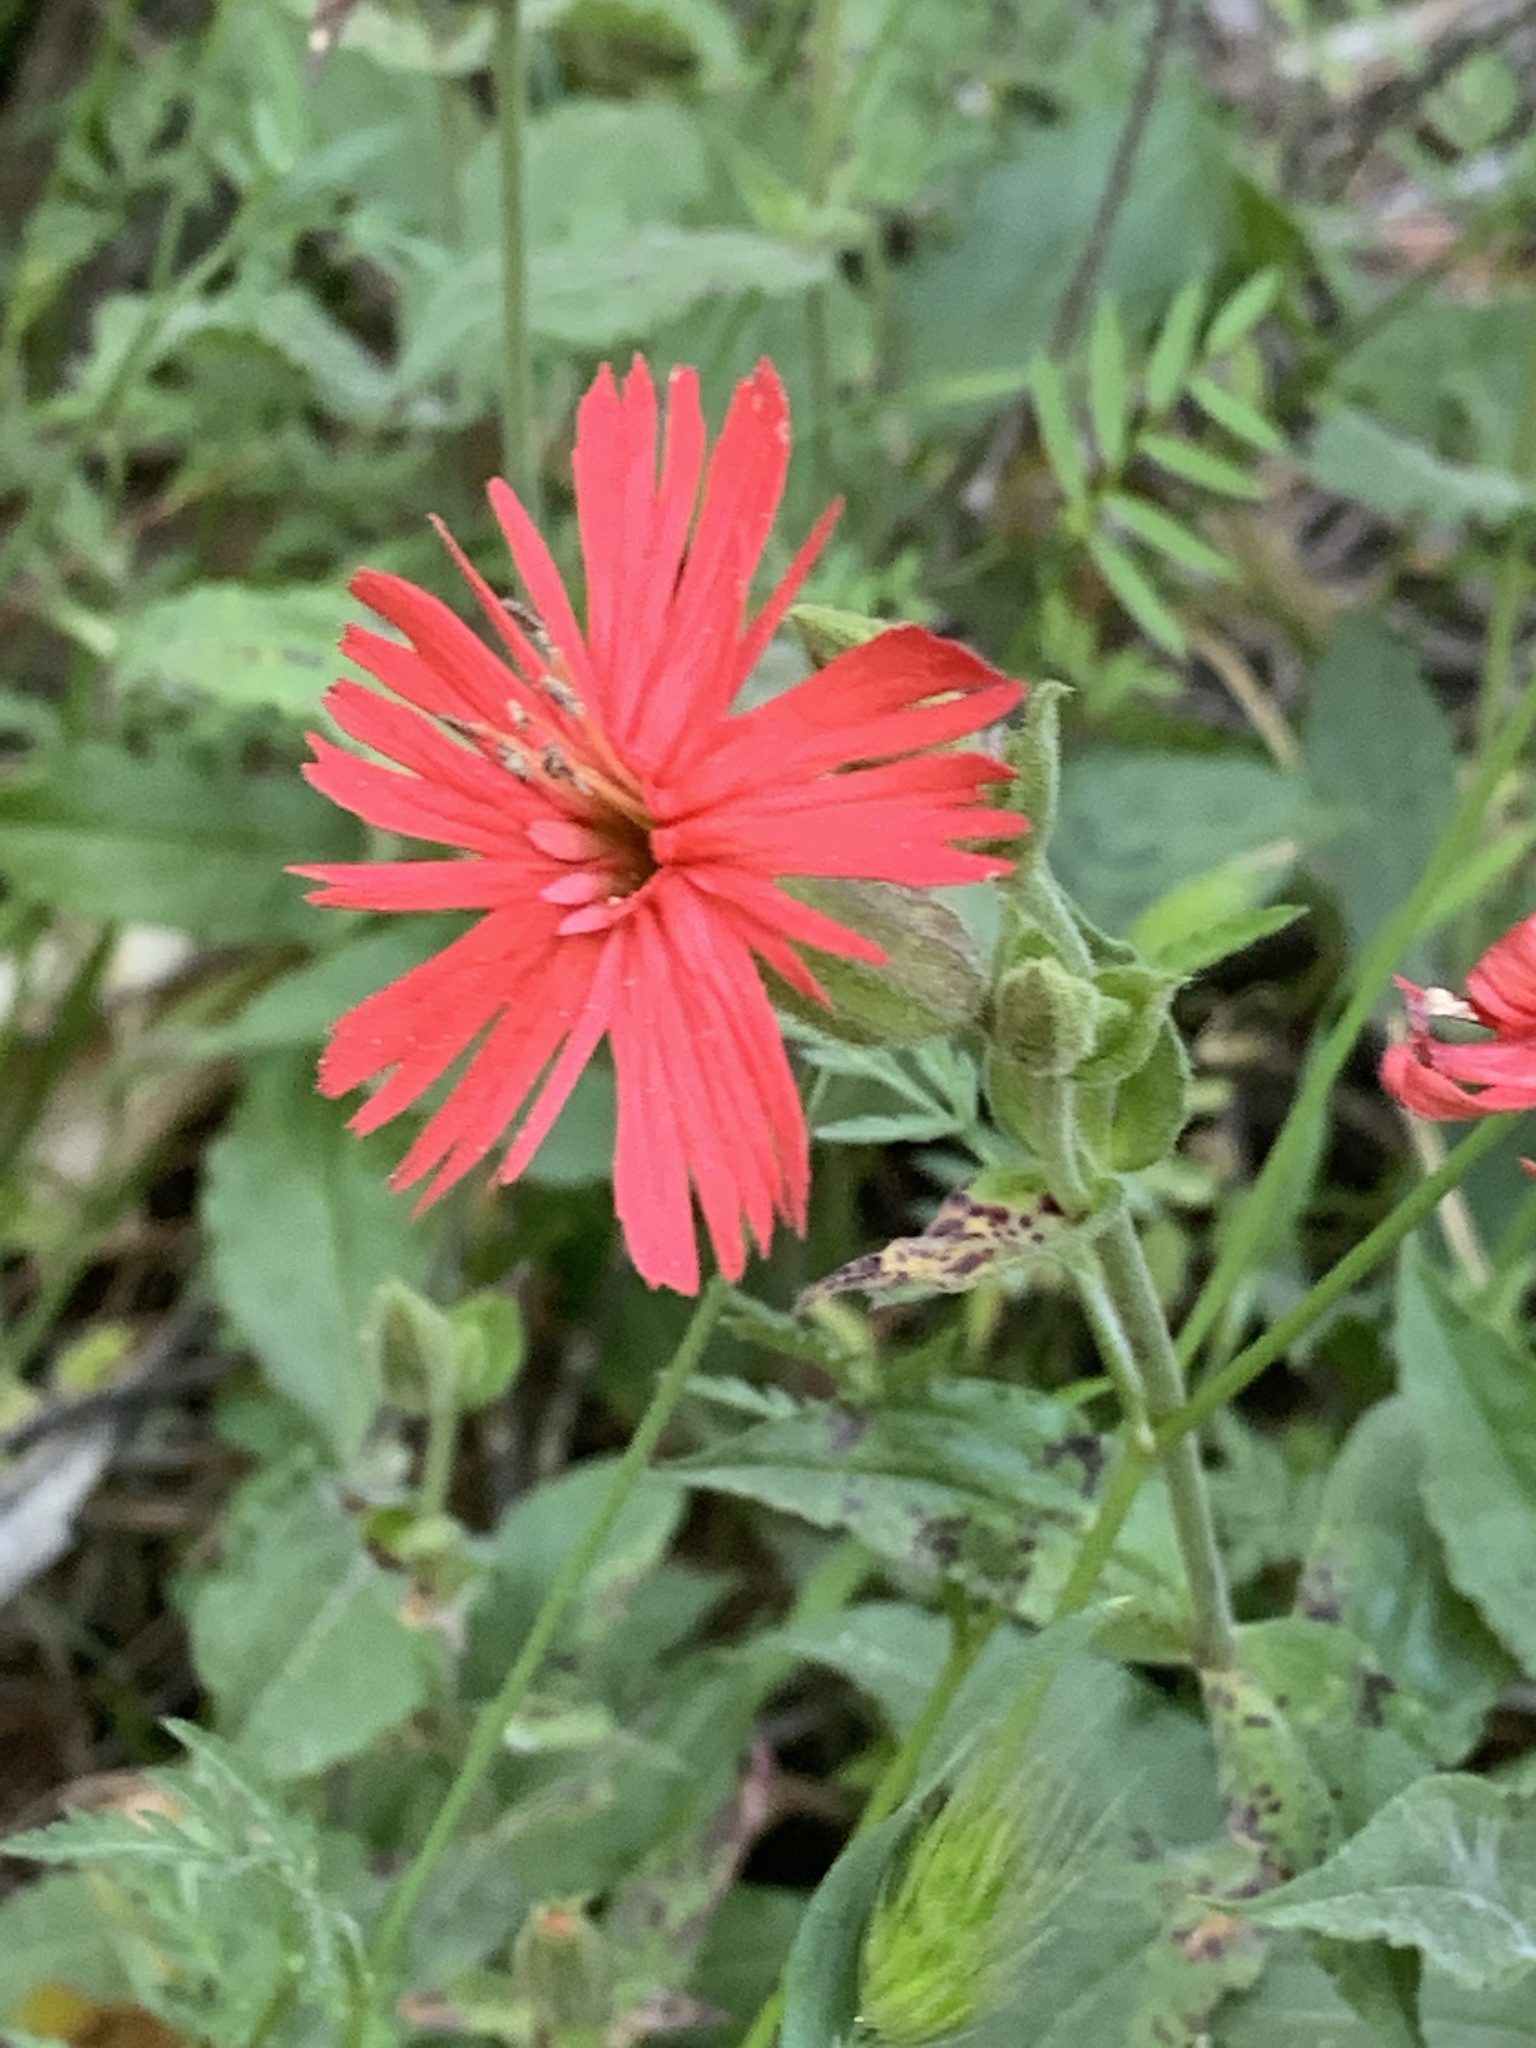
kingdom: Plantae
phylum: Tracheophyta
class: Magnoliopsida
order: Caryophyllales
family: Caryophyllaceae
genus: Silene
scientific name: Silene laciniata
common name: Indian-pink
